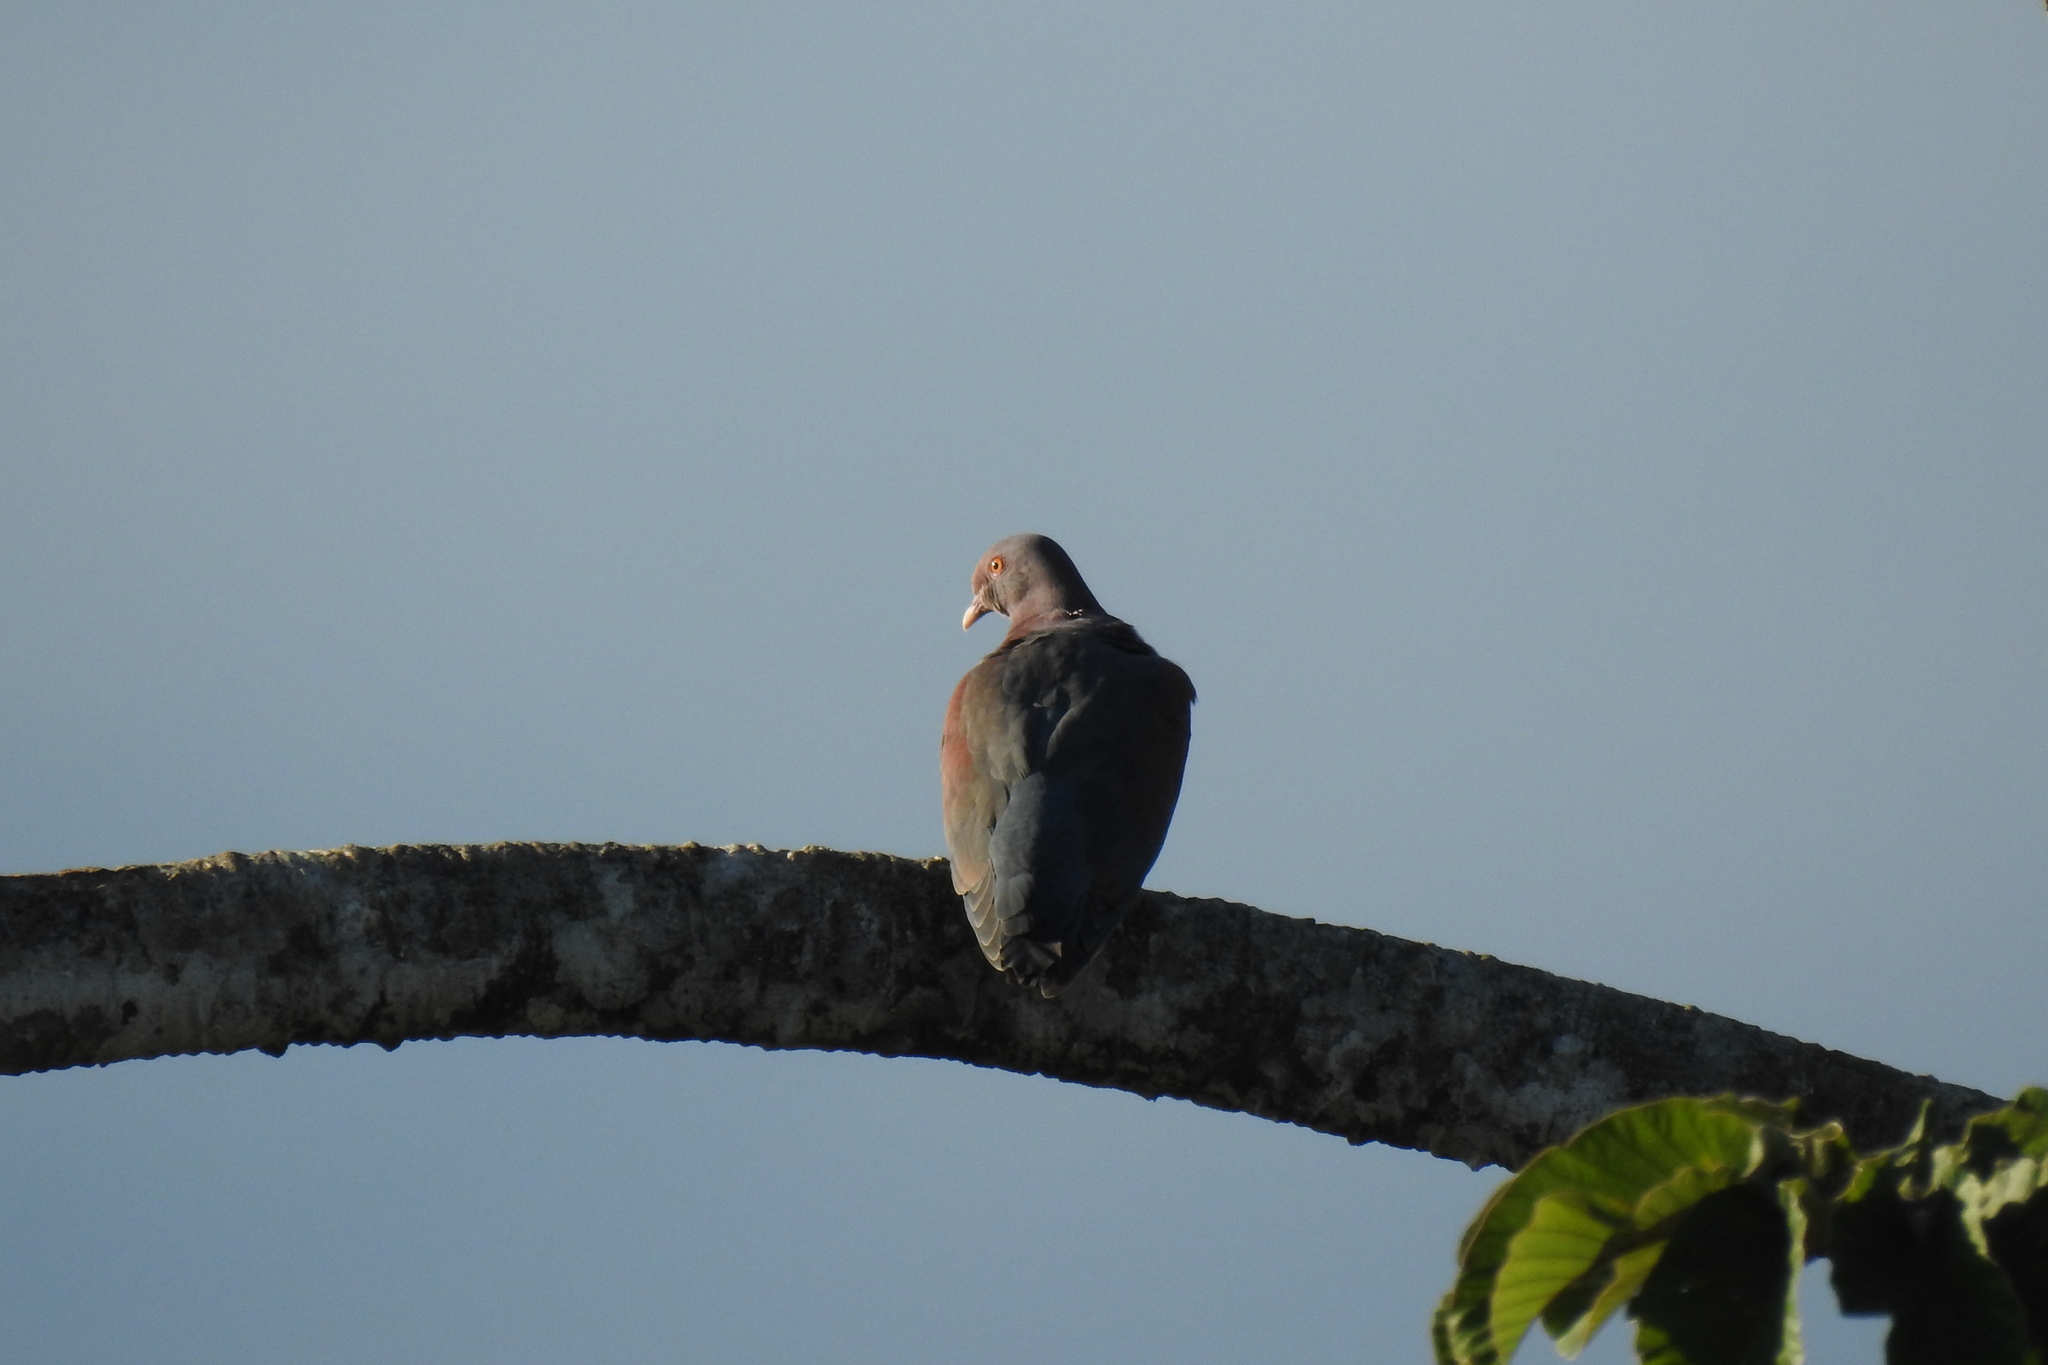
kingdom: Animalia
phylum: Chordata
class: Aves
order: Columbiformes
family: Columbidae
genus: Patagioenas
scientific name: Patagioenas flavirostris
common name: Red-billed pigeon
